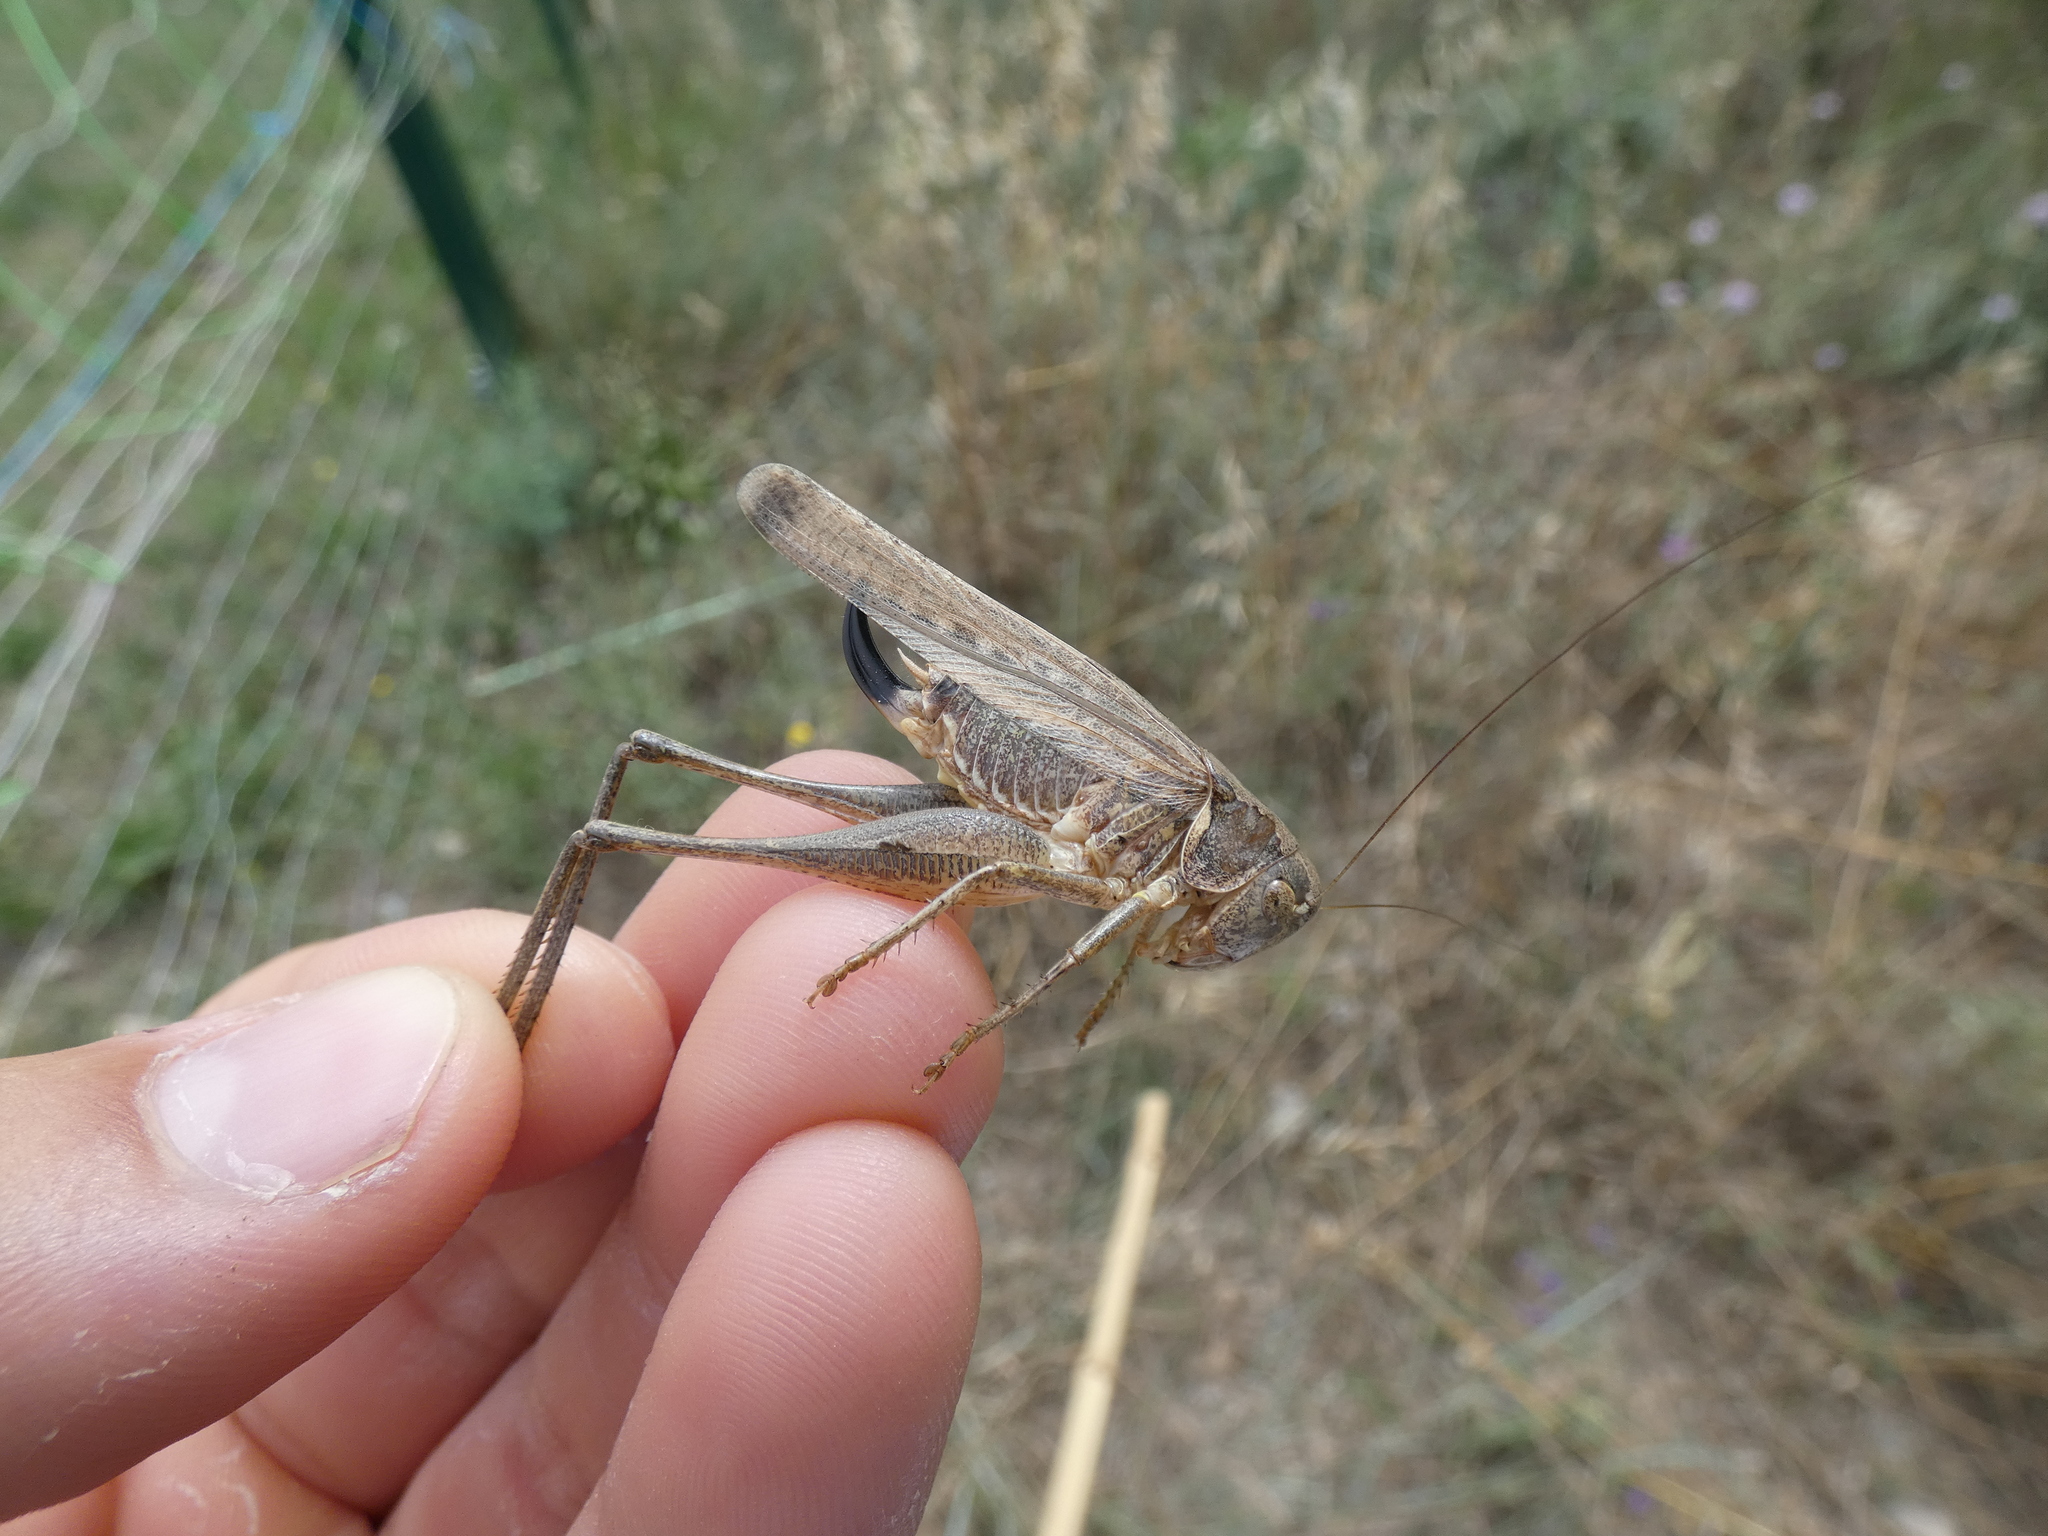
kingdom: Animalia
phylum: Arthropoda
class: Insecta
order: Orthoptera
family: Tettigoniidae
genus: Platycleis
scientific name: Platycleis falx
